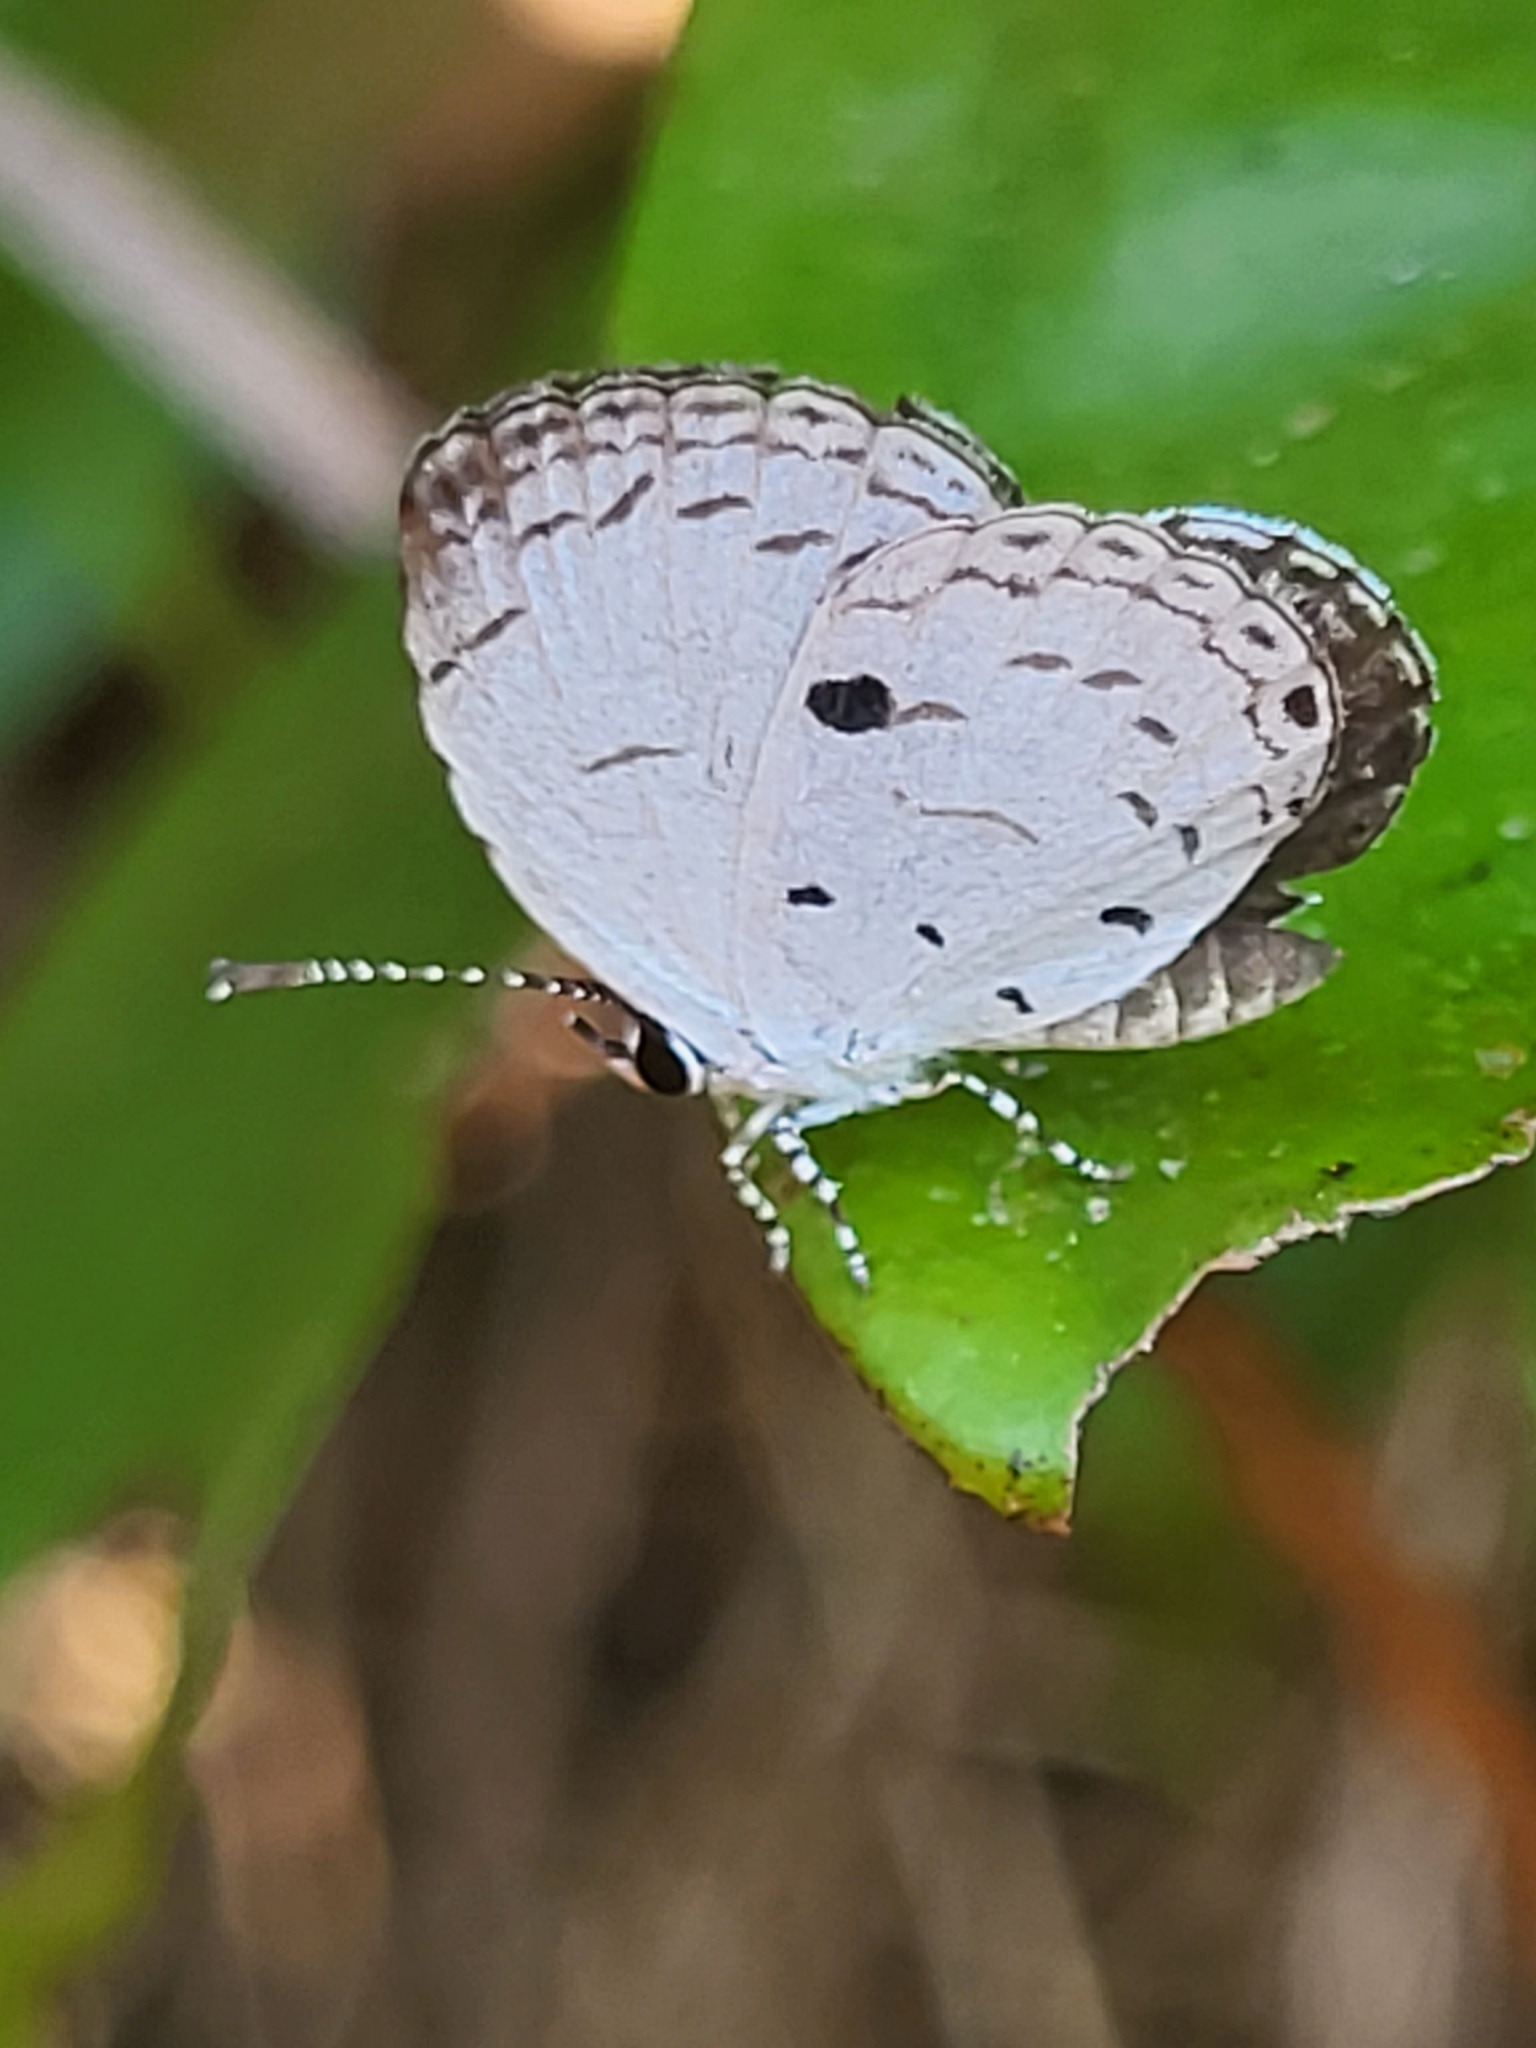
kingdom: Animalia
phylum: Arthropoda
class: Insecta
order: Lepidoptera
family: Lycaenidae
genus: Neopithecops
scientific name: Neopithecops zalmora
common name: Quaker
